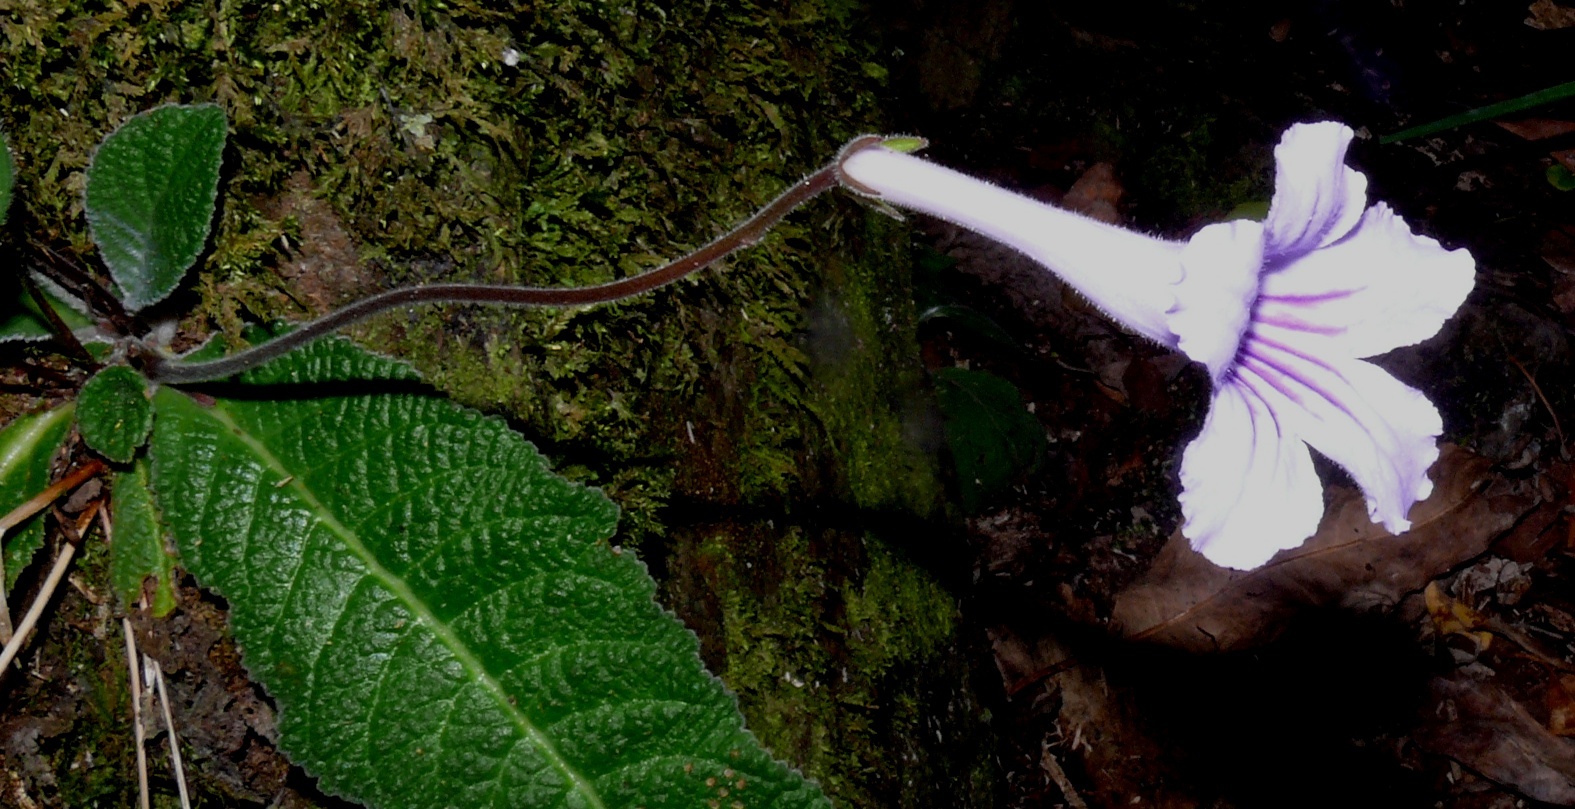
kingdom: Plantae
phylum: Tracheophyta
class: Magnoliopsida
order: Lamiales
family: Gesneriaceae
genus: Streptocarpus
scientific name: Streptocarpus rexii
